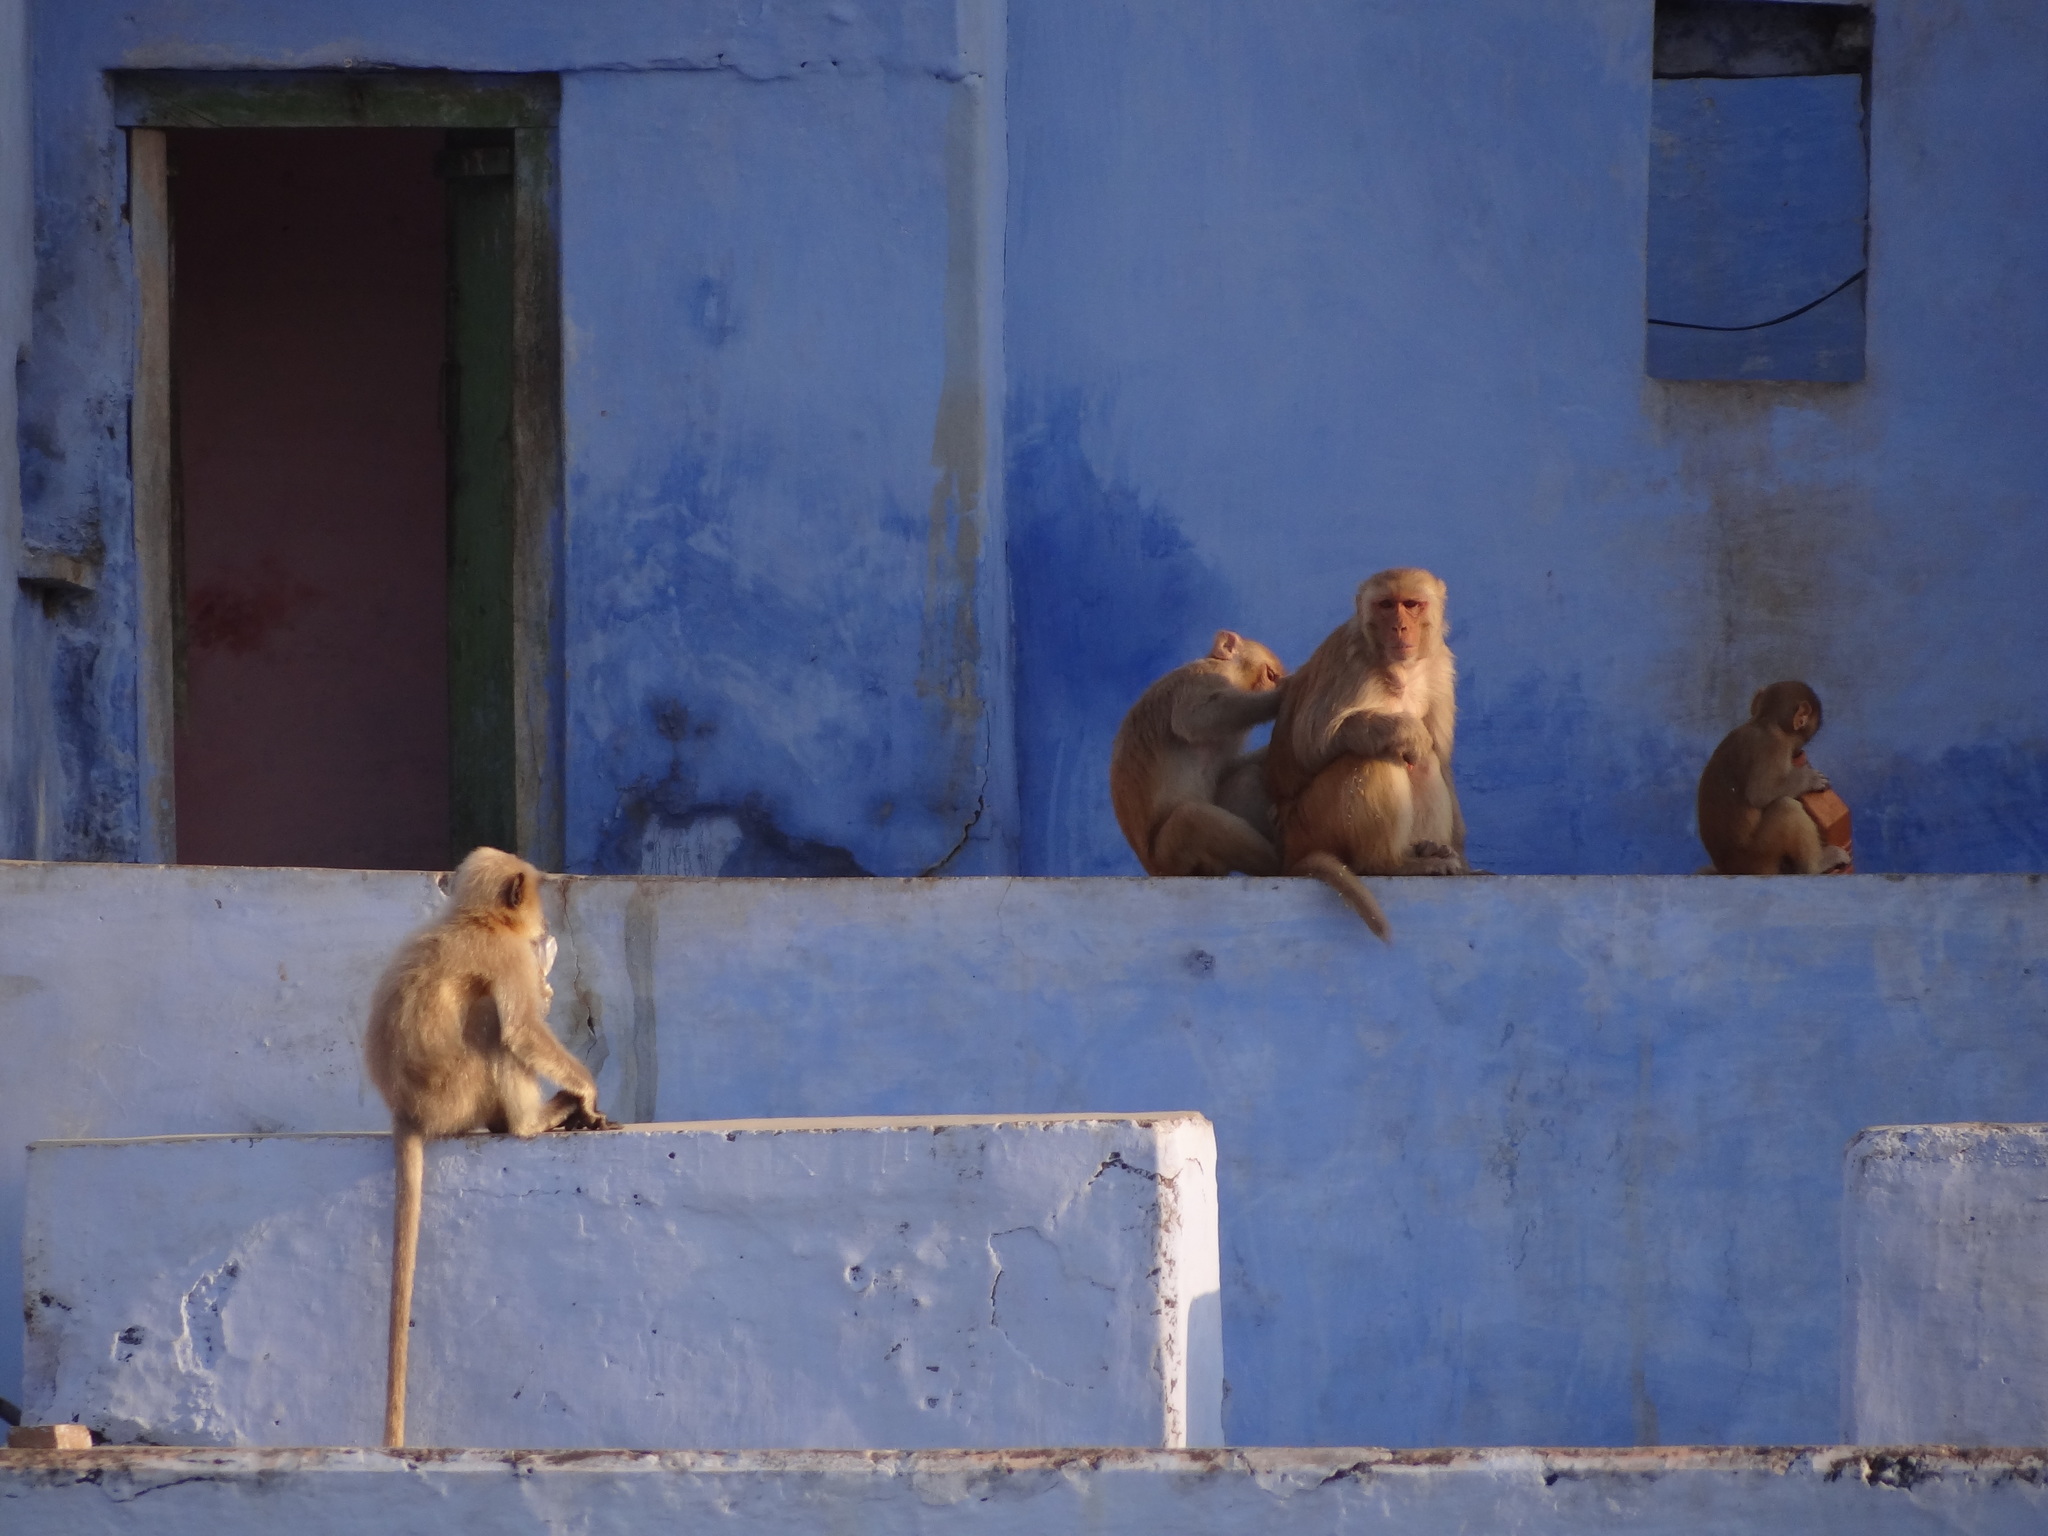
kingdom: Animalia
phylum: Chordata
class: Mammalia
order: Primates
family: Cercopithecidae
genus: Macaca
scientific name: Macaca mulatta
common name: Rhesus monkey
